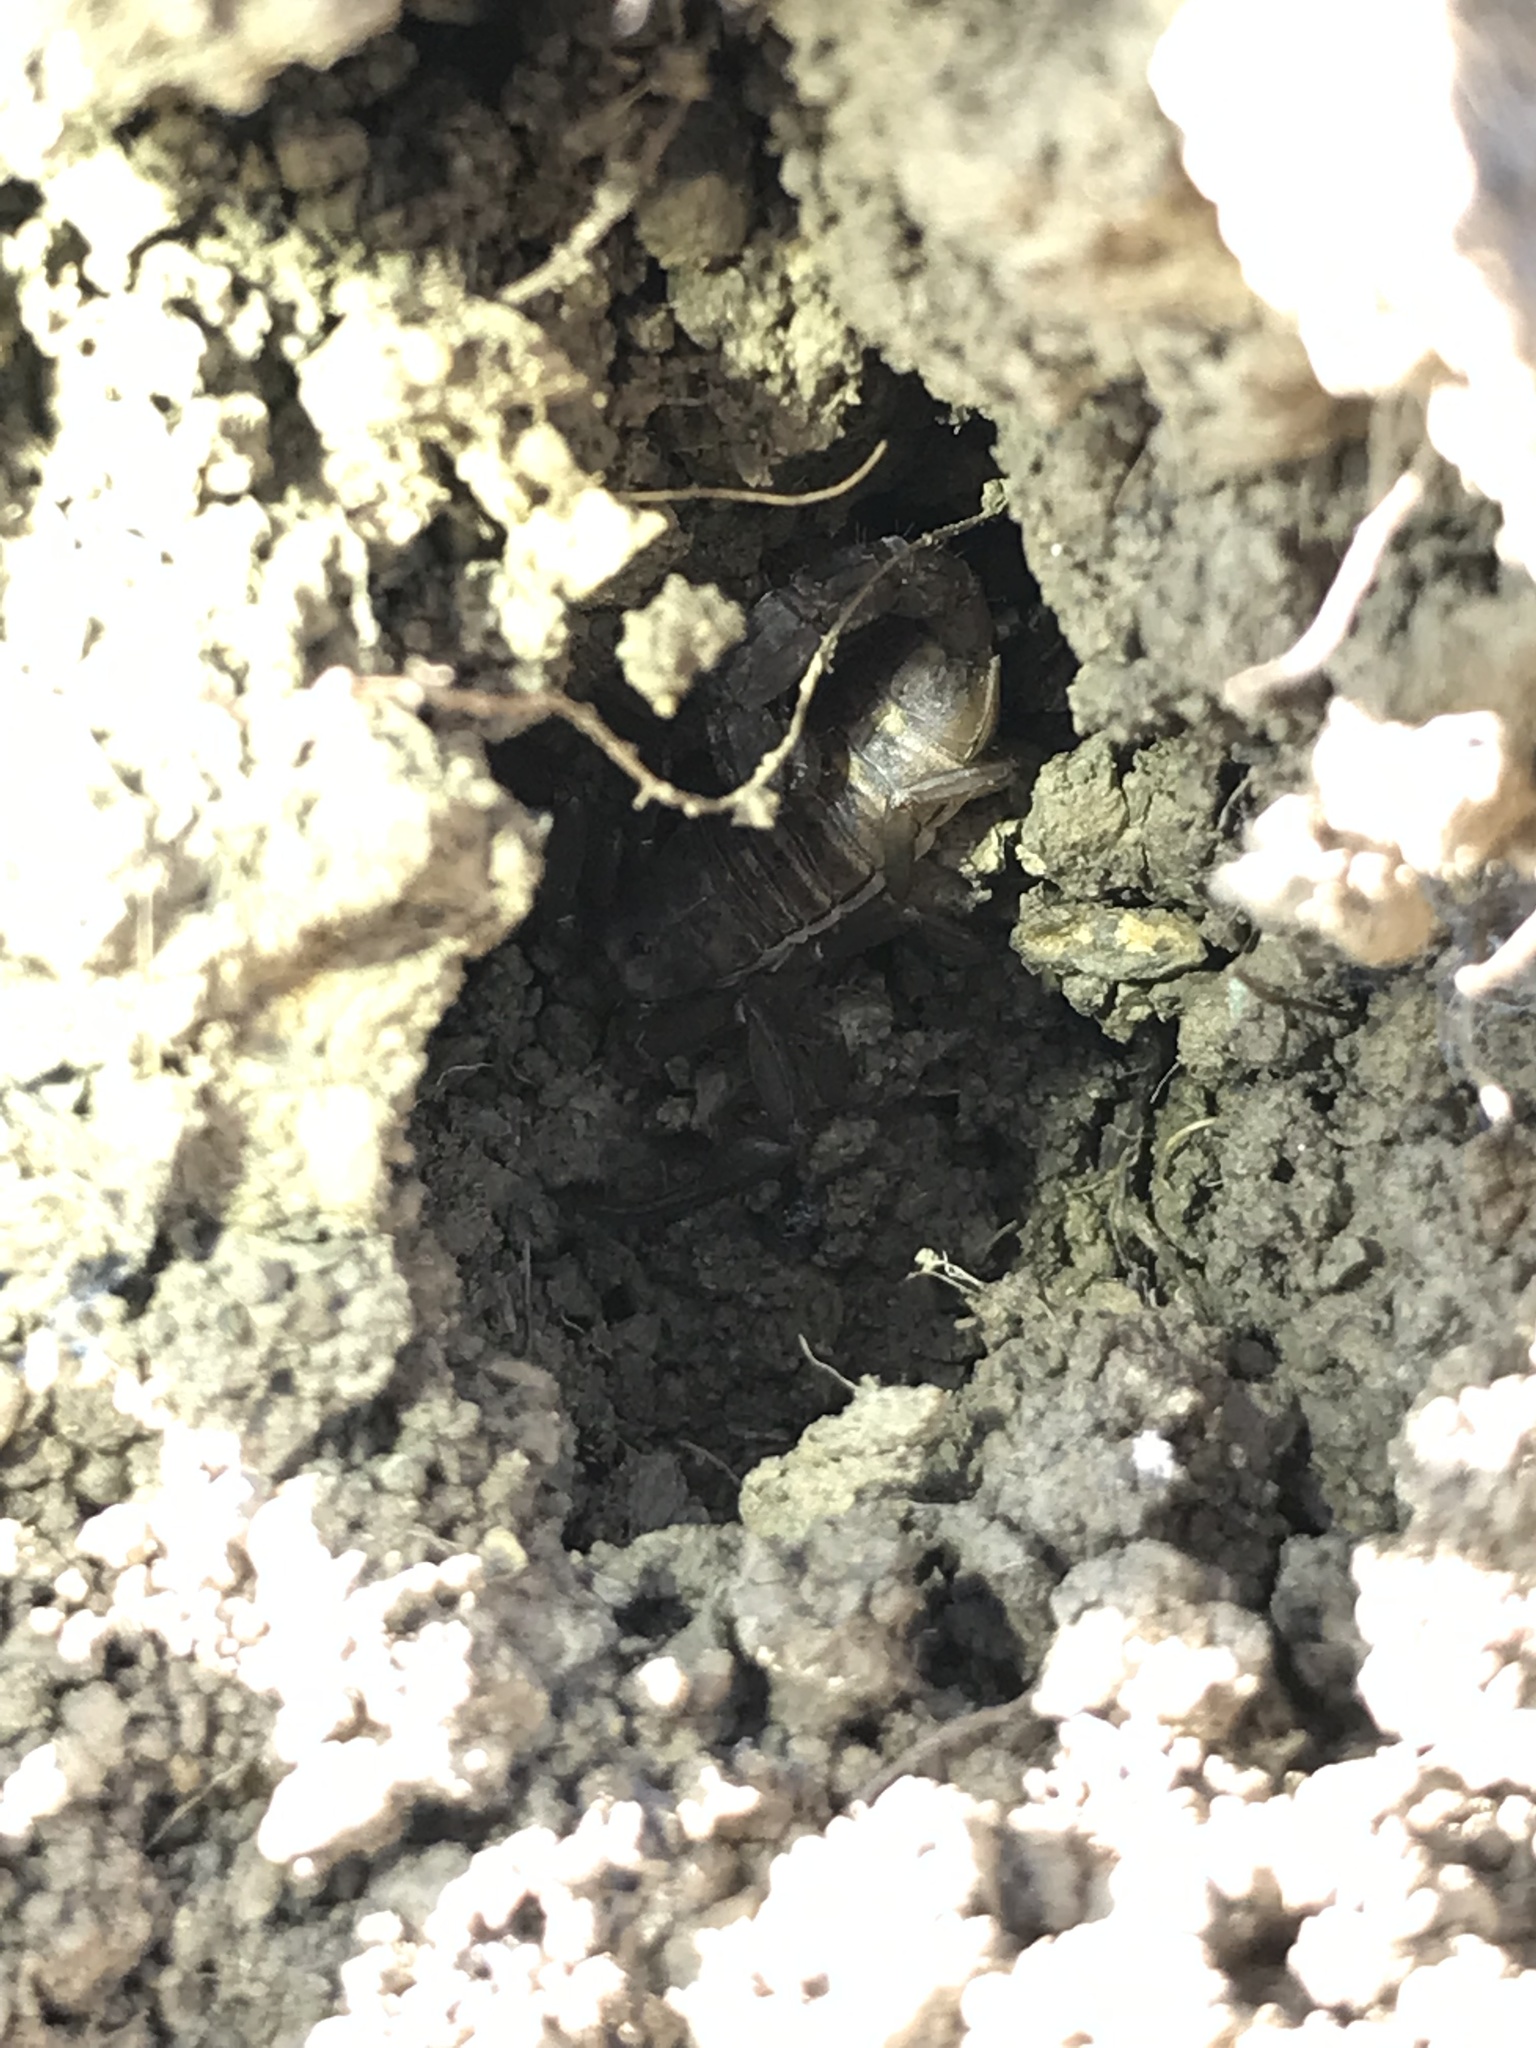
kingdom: Animalia
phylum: Arthropoda
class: Arachnida
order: Scorpiones
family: Vaejovidae
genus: Serradigitus
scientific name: Serradigitus gertschi
